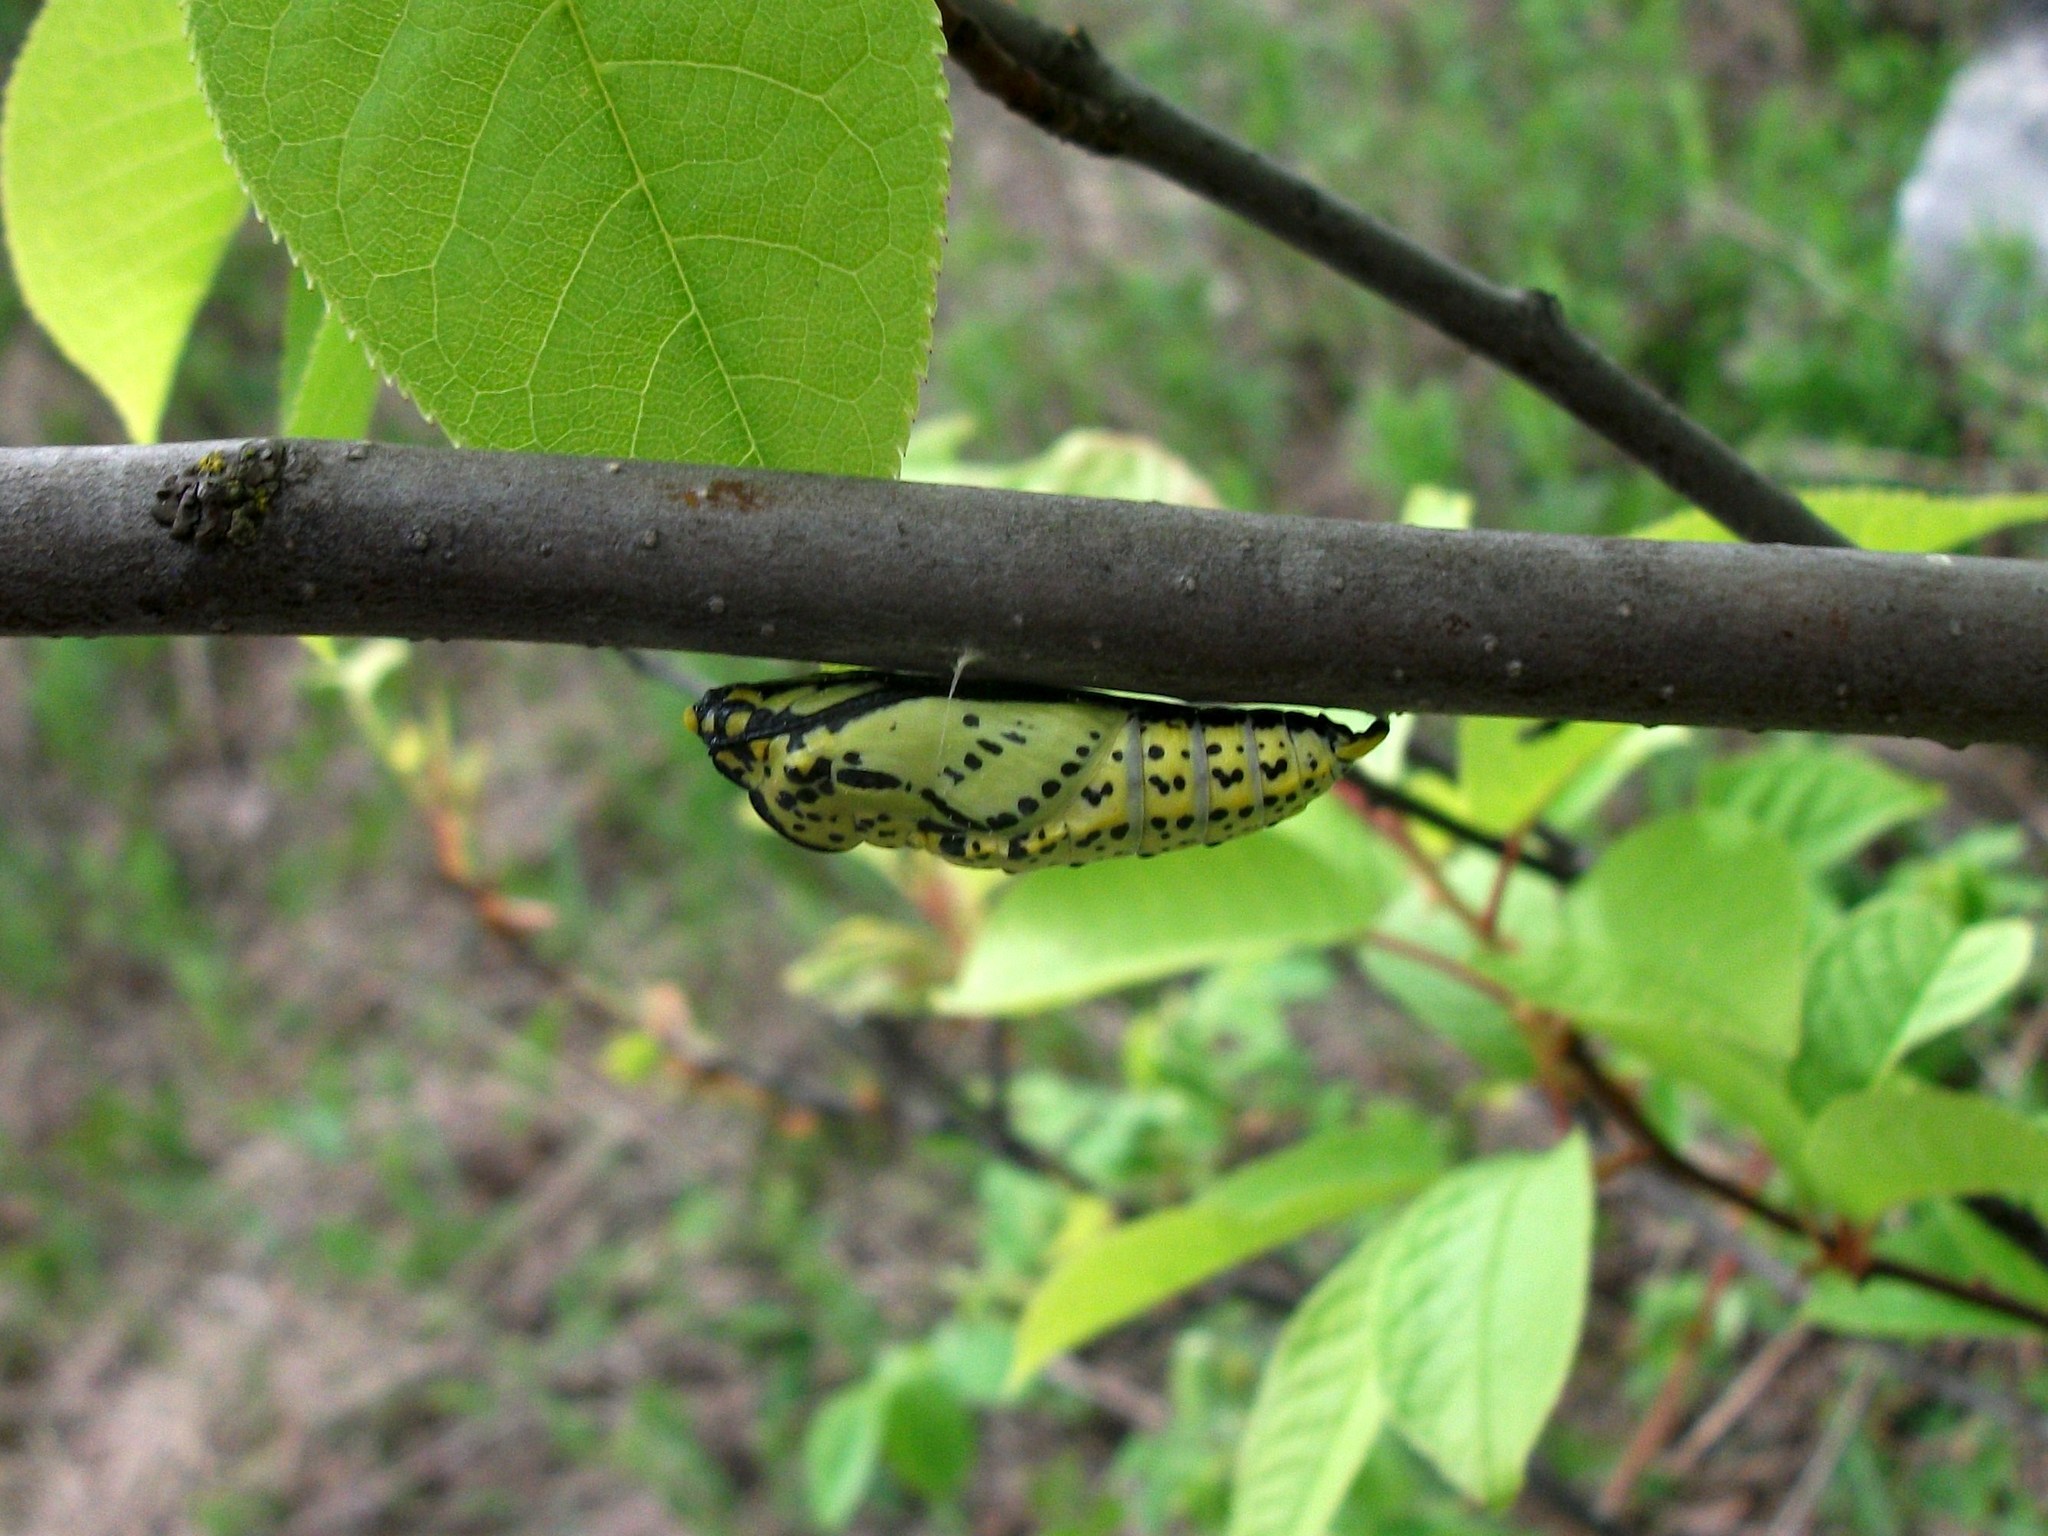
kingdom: Animalia
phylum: Arthropoda
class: Insecta
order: Lepidoptera
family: Pieridae
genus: Aporia
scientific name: Aporia crataegi
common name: Black-veined white
